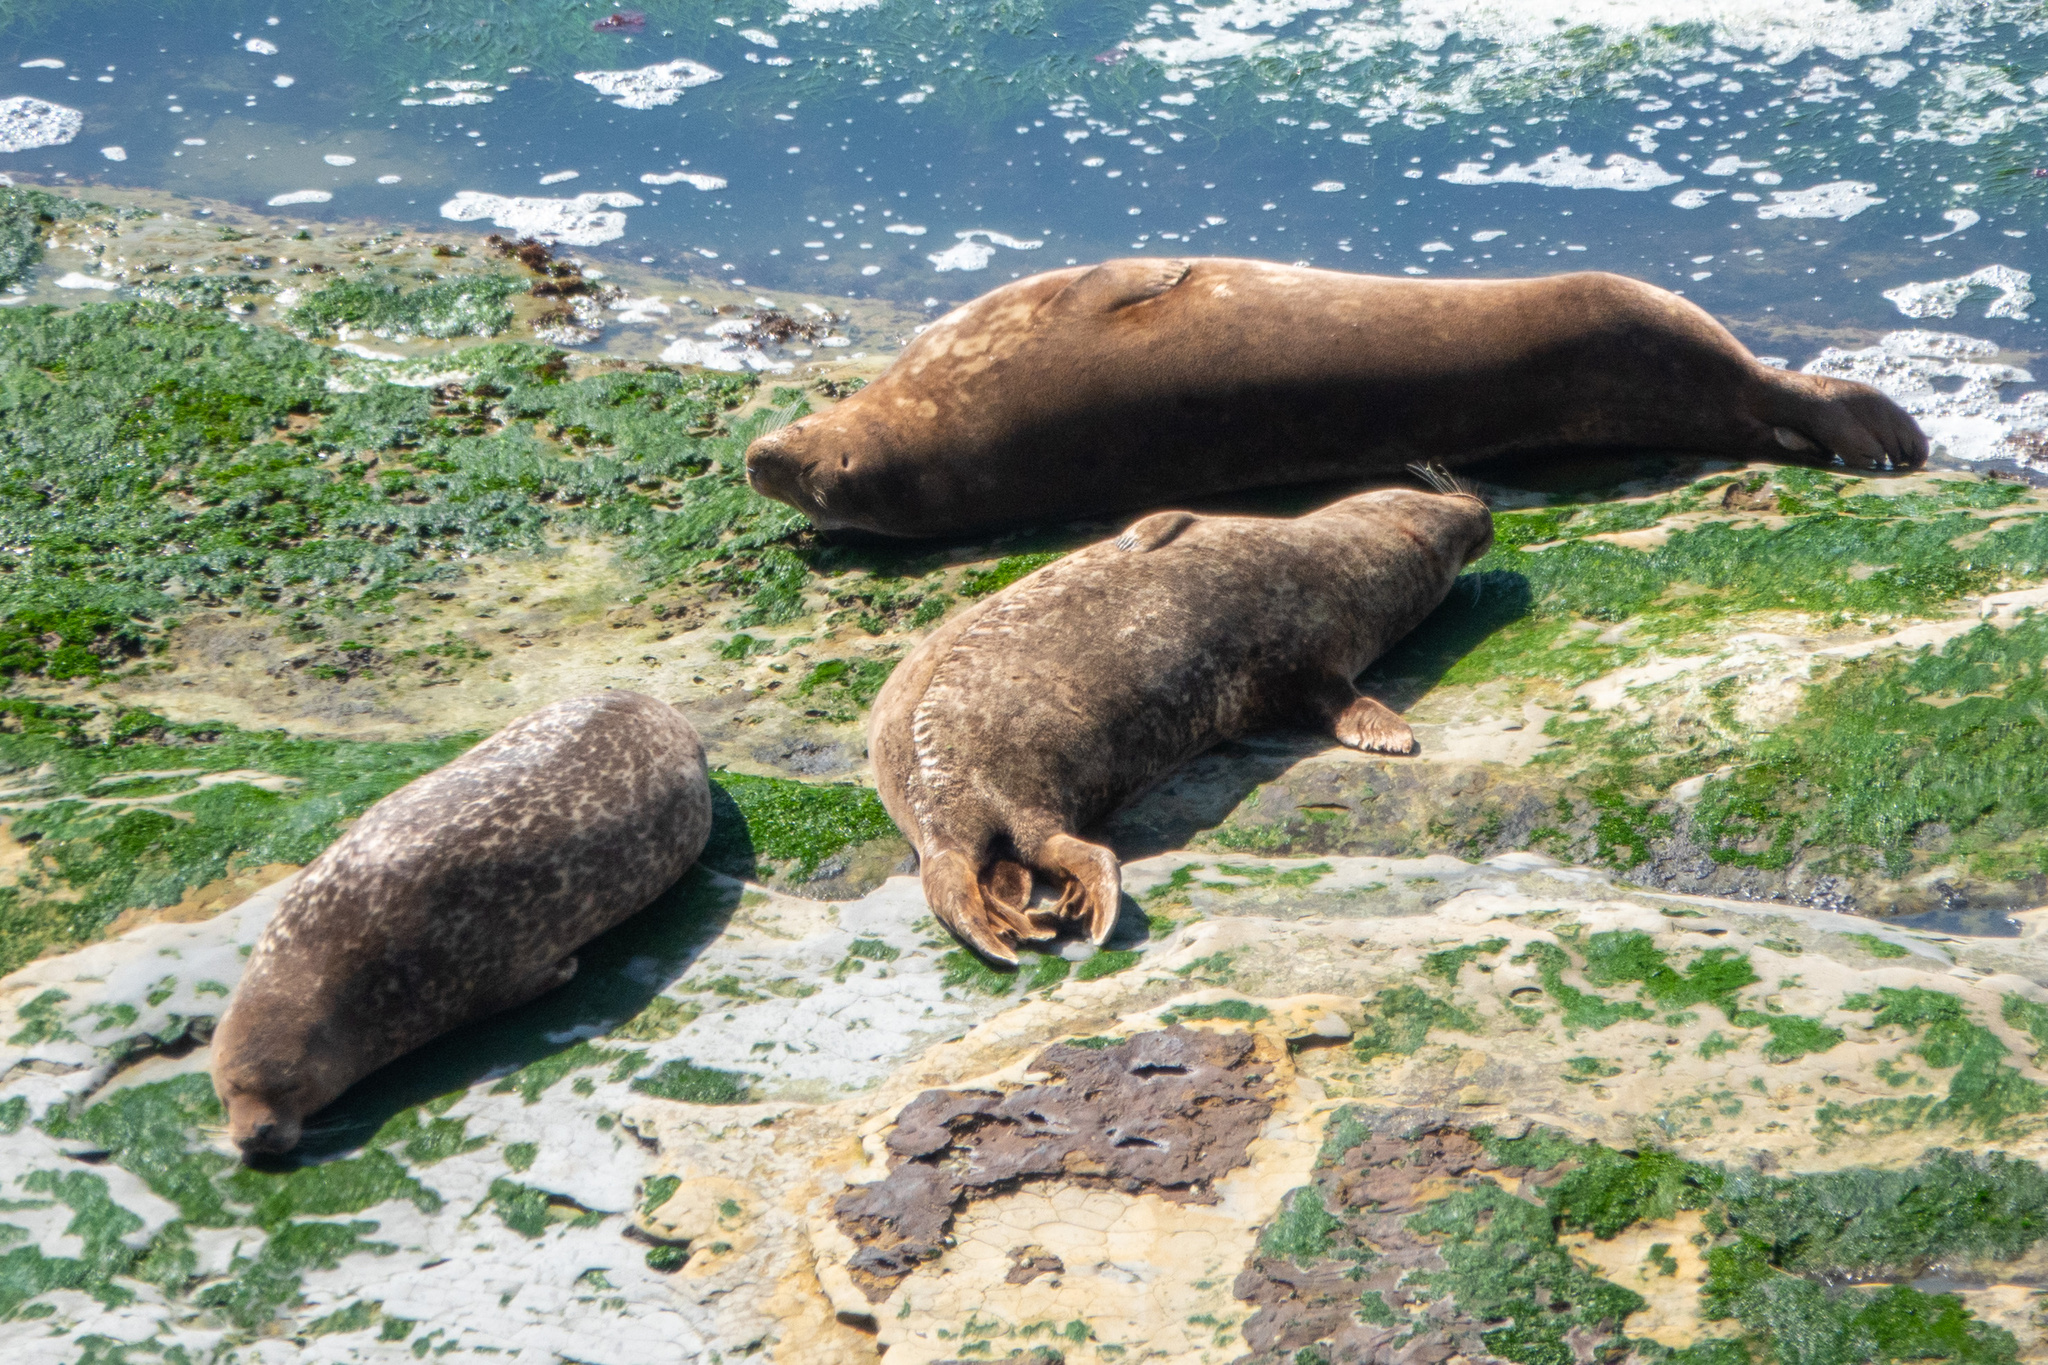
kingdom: Animalia
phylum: Chordata
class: Mammalia
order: Carnivora
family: Phocidae
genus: Phoca
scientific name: Phoca vitulina
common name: Harbor seal
